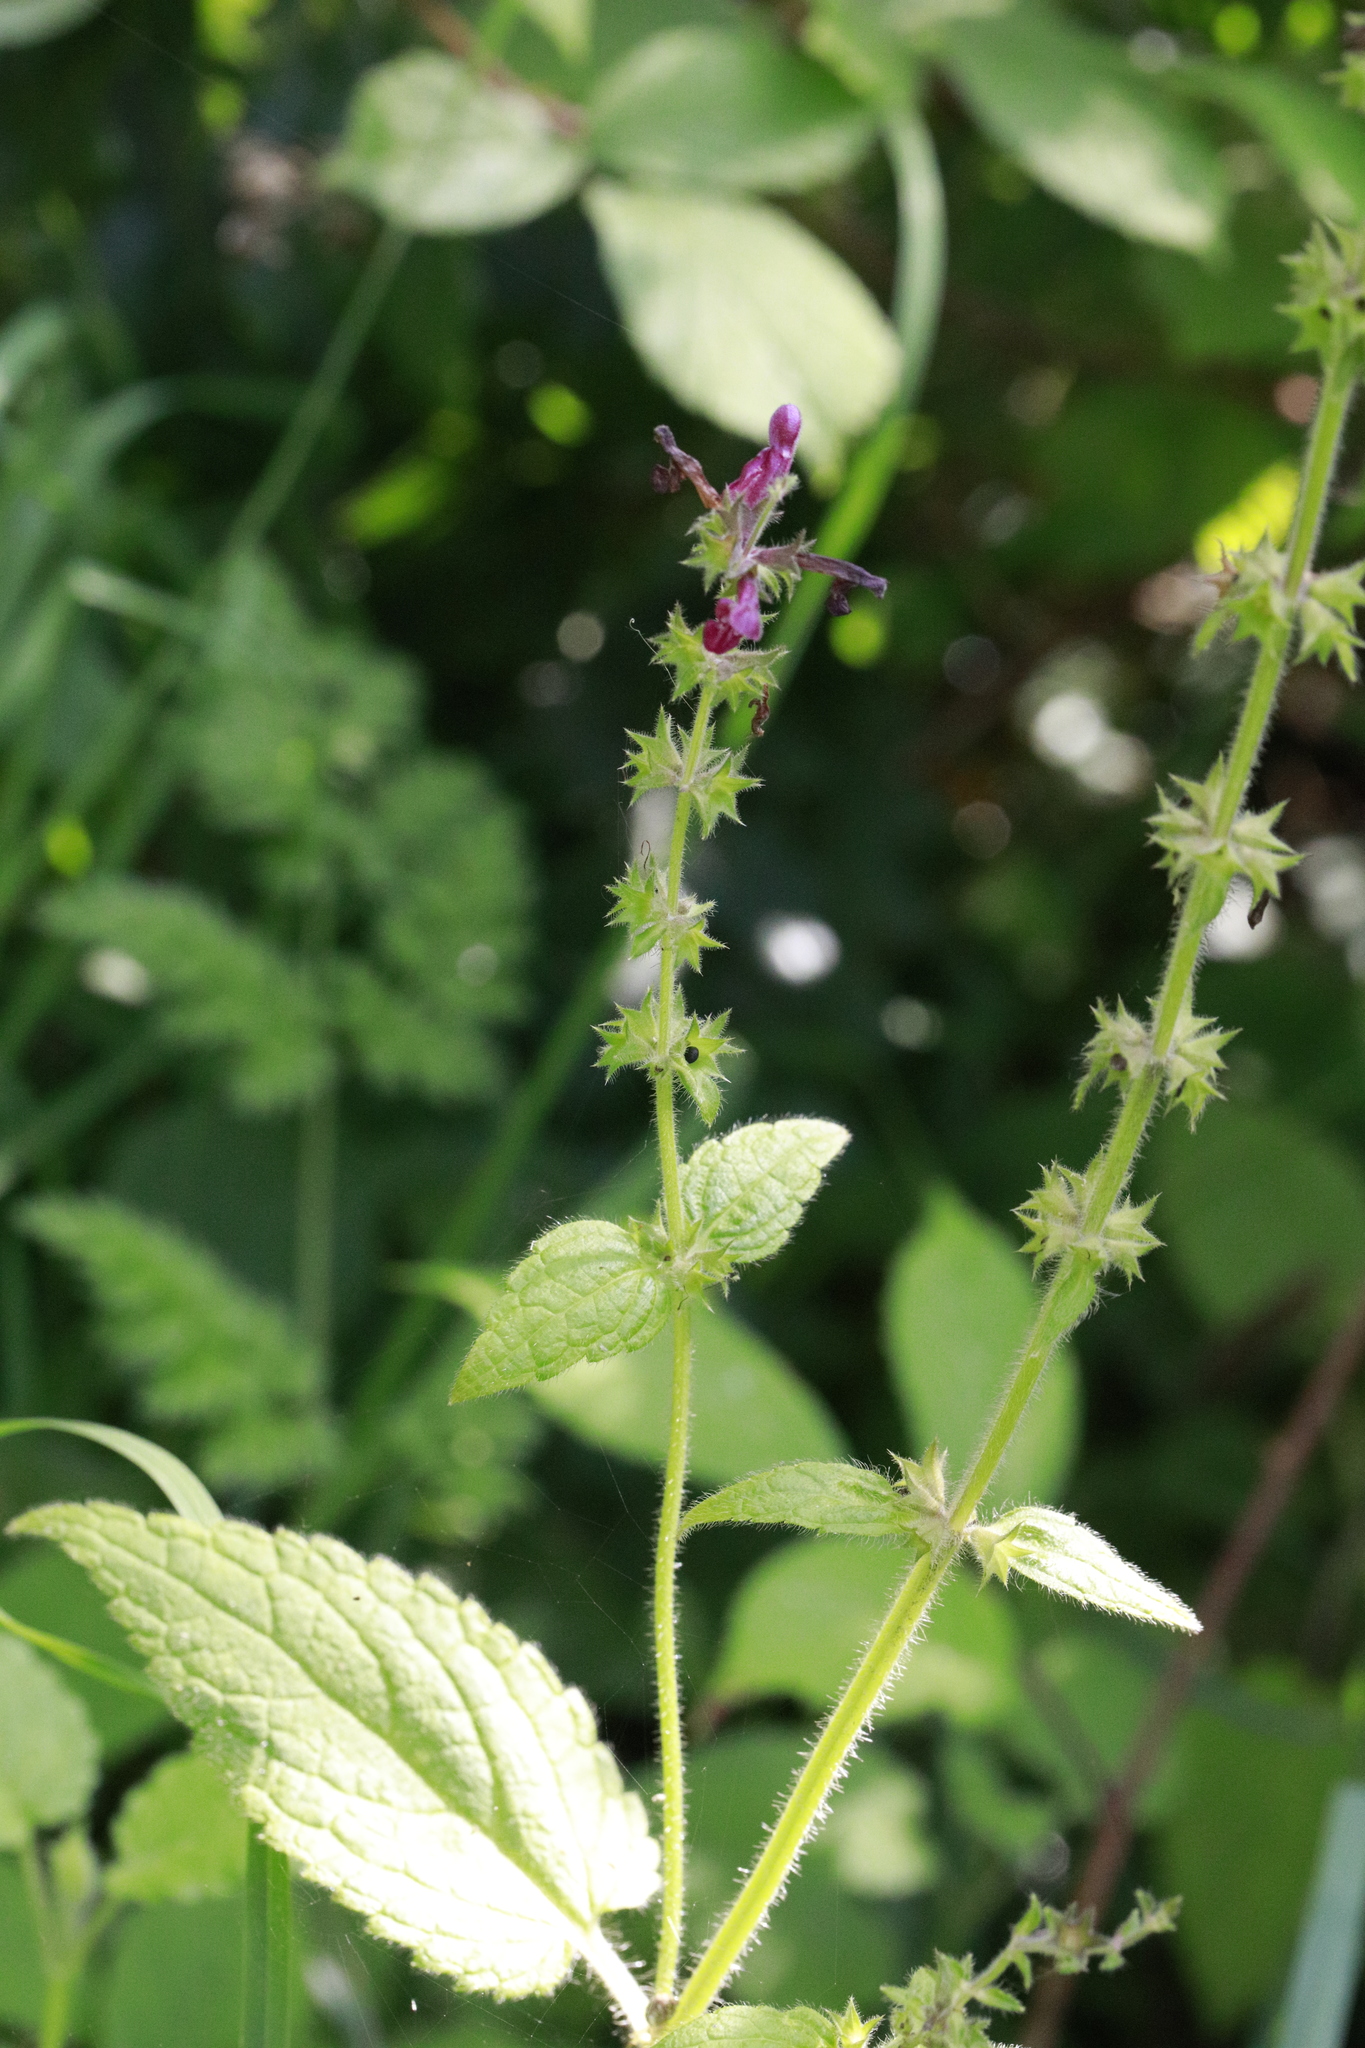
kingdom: Plantae
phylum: Tracheophyta
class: Magnoliopsida
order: Lamiales
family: Lamiaceae
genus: Stachys
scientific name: Stachys sylvatica
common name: Hedge woundwort
